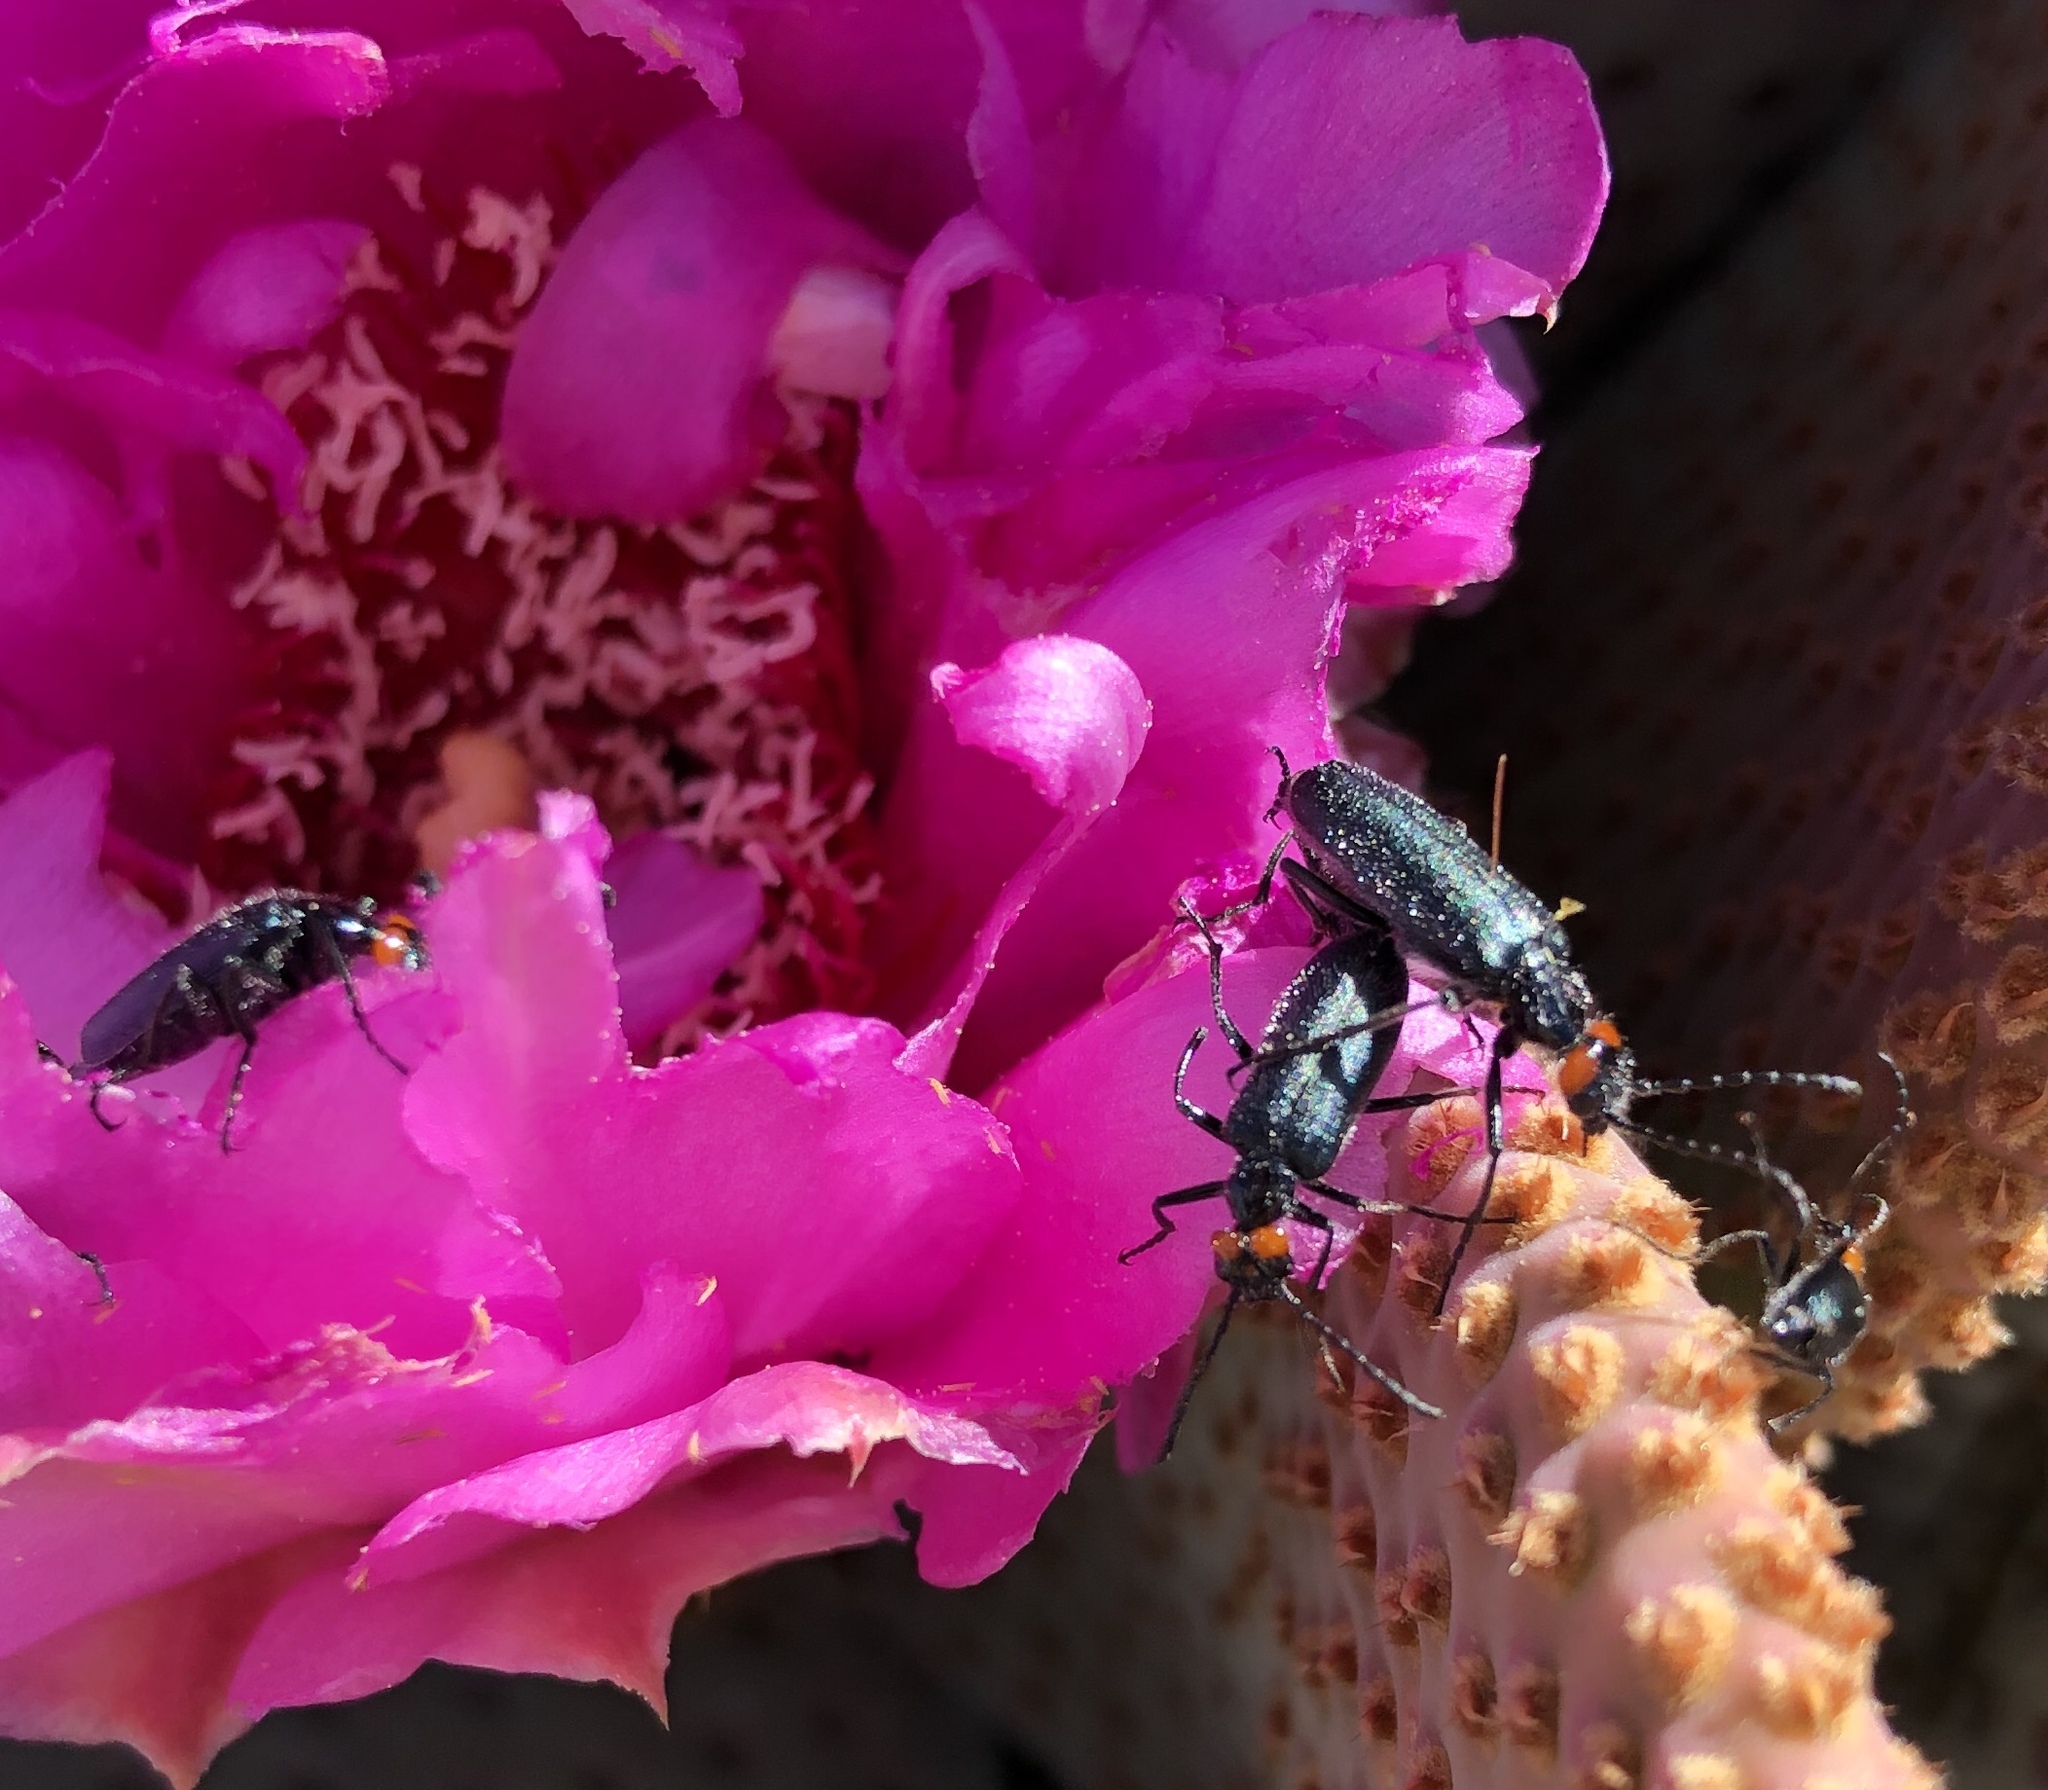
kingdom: Animalia
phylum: Arthropoda
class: Insecta
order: Coleoptera
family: Meloidae
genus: Lytta
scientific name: Lytta auriculata
